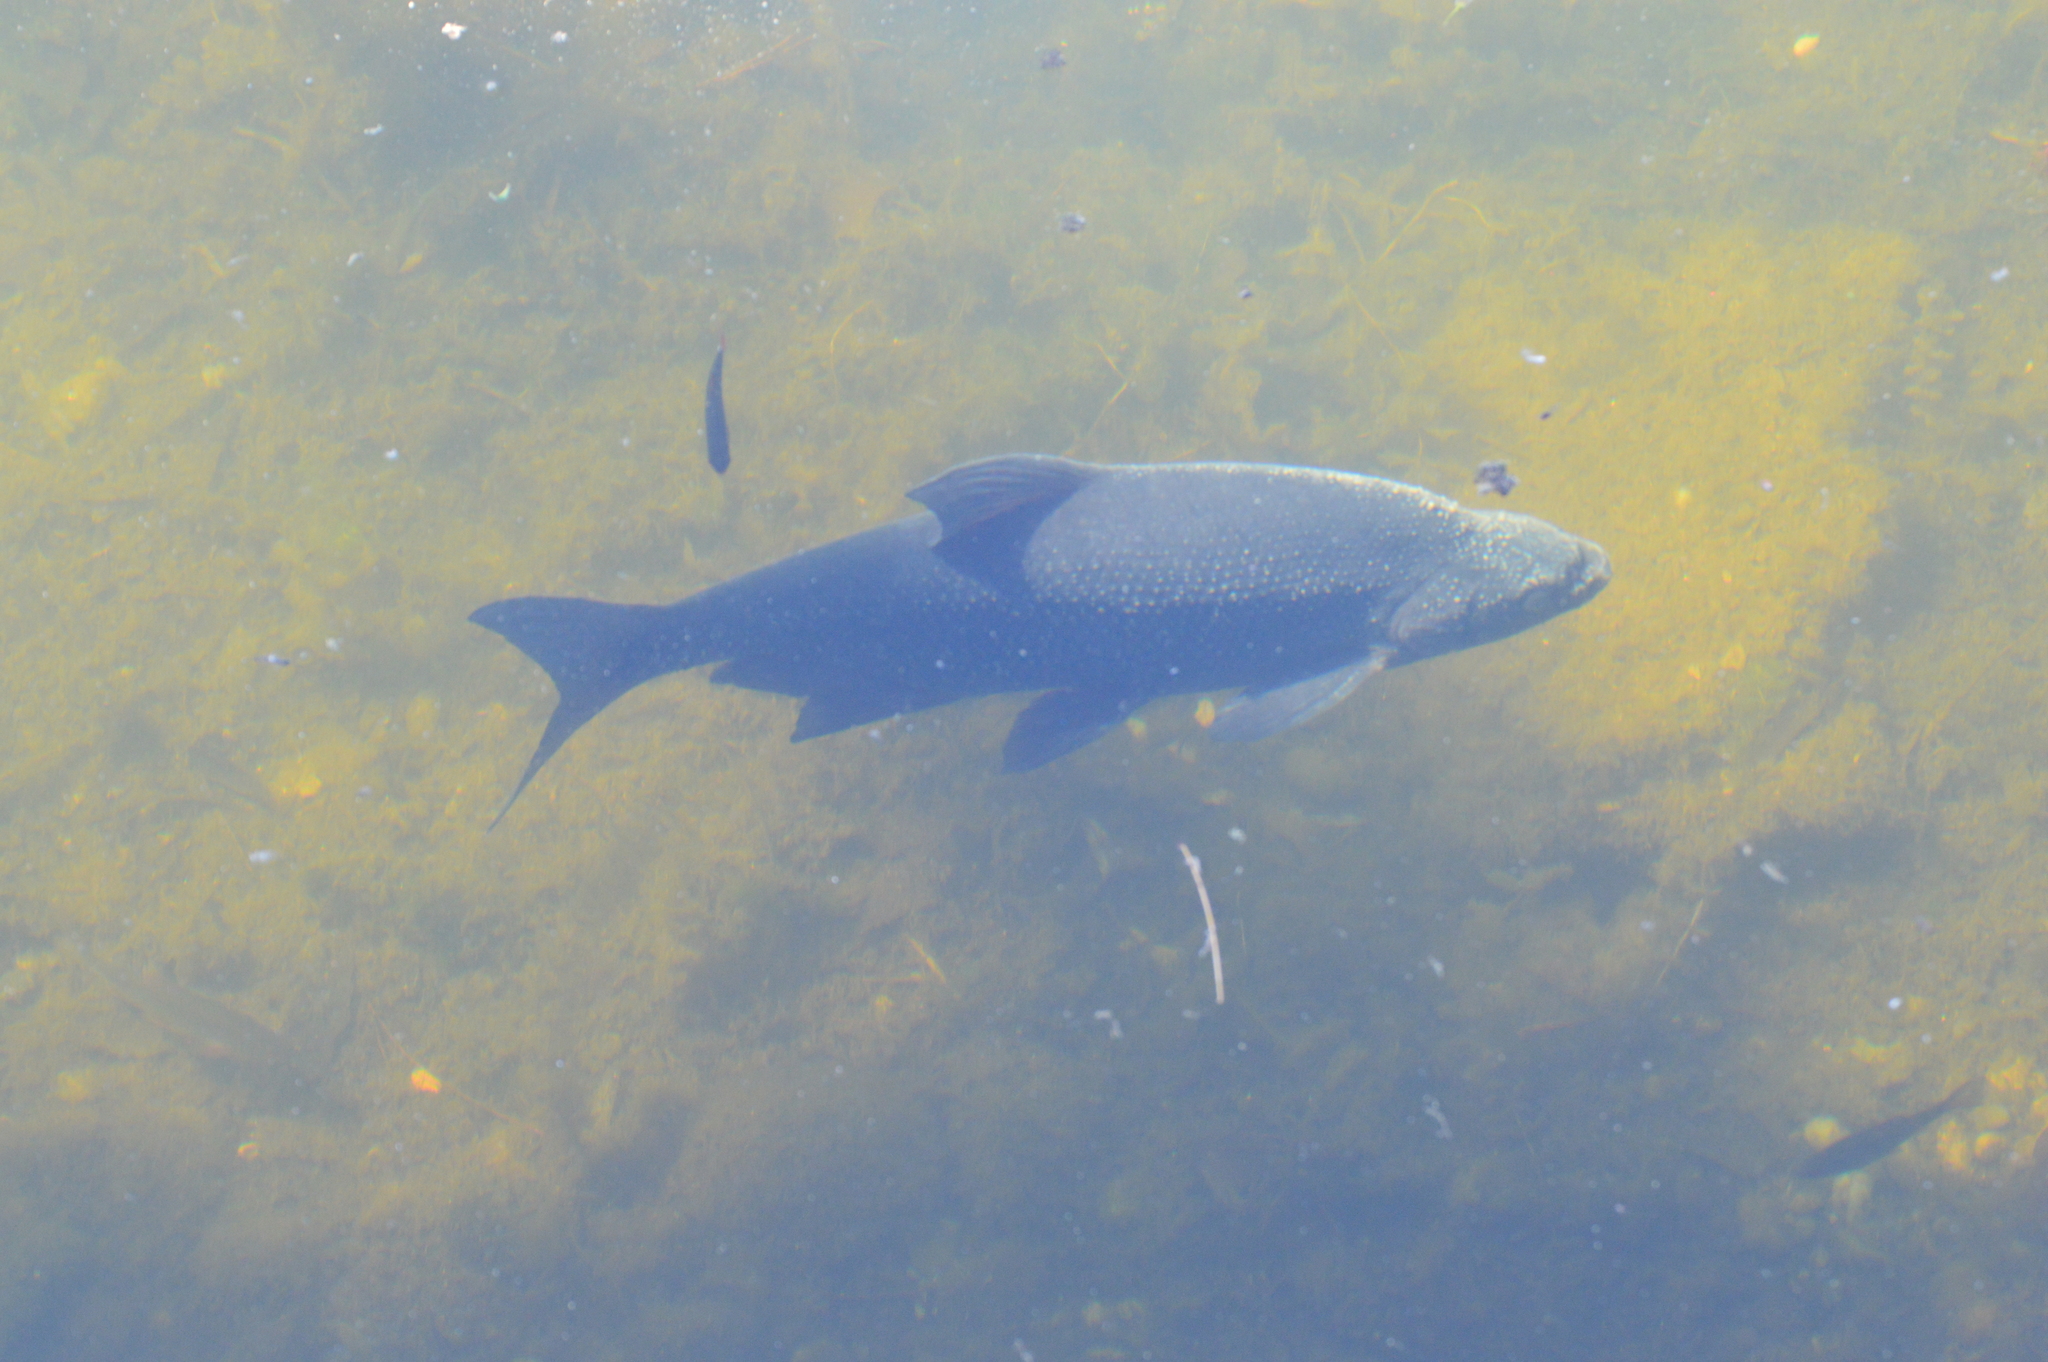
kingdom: Animalia
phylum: Chordata
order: Cypriniformes
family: Cyprinidae
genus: Abramis
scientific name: Abramis brama
